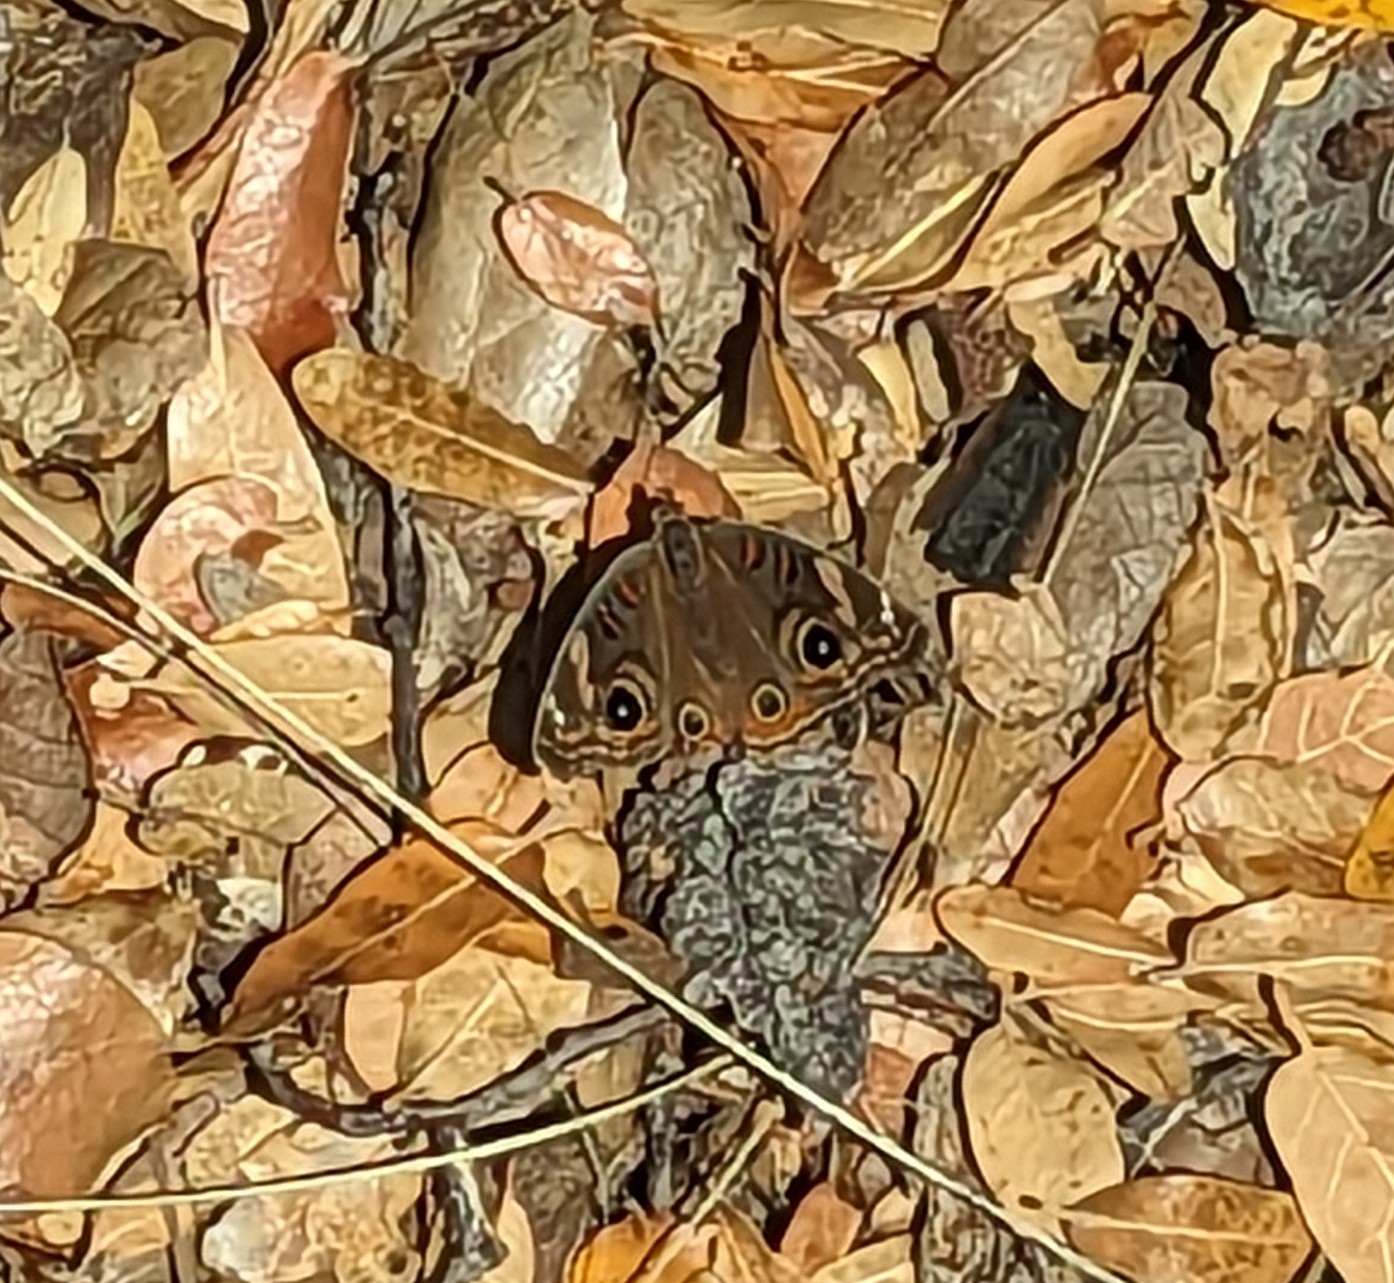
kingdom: Animalia
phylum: Arthropoda
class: Insecta
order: Lepidoptera
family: Nymphalidae
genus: Junonia
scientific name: Junonia grisea
